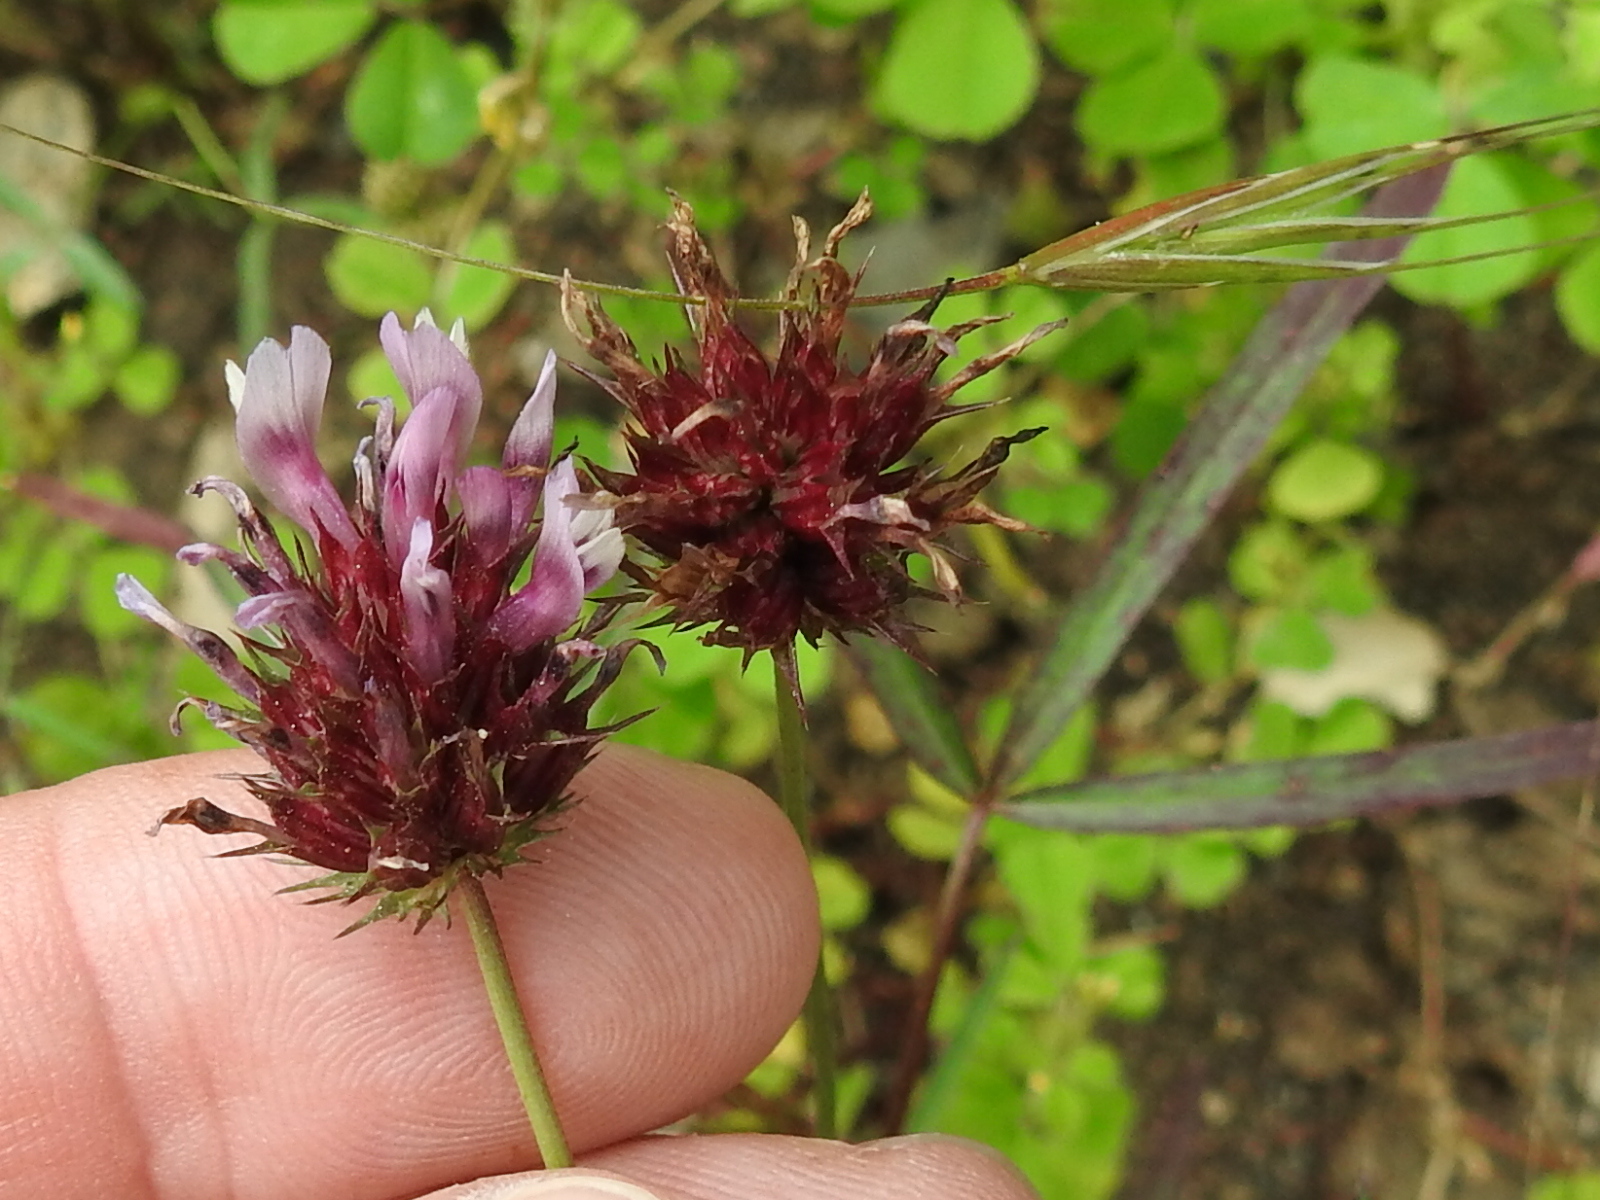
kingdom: Plantae
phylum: Tracheophyta
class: Magnoliopsida
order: Fabales
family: Fabaceae
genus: Trifolium
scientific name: Trifolium willdenovii
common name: Tomcat clover
